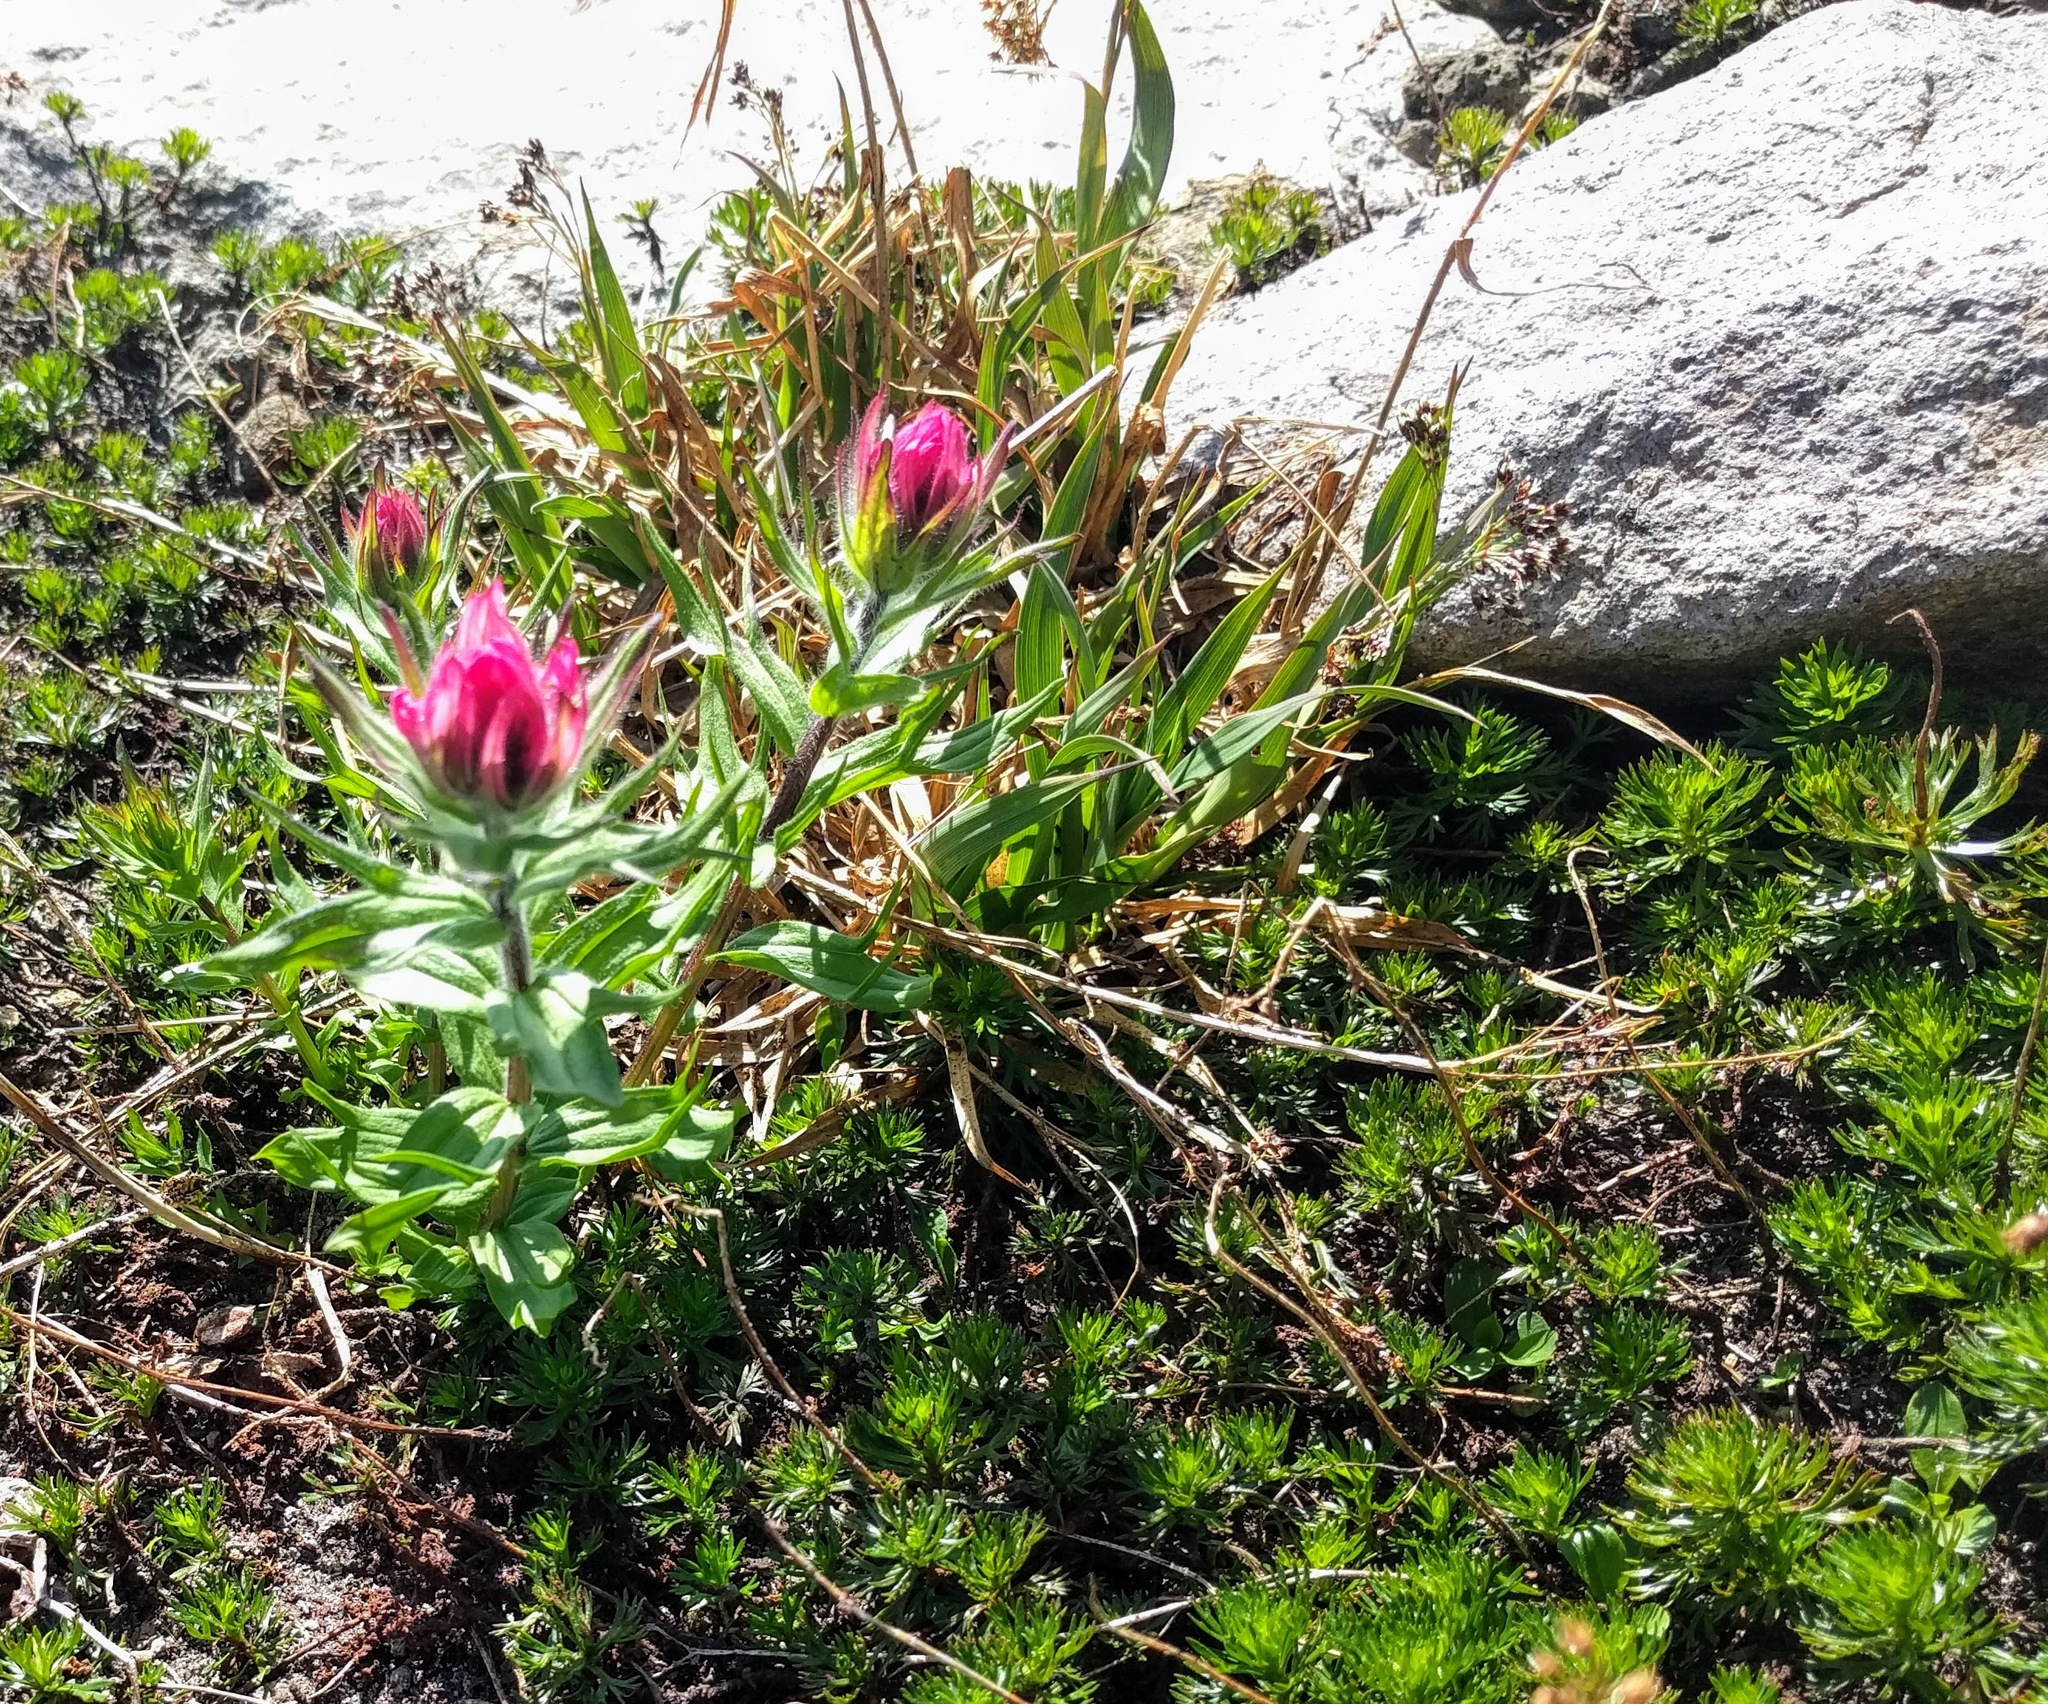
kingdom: Plantae
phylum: Tracheophyta
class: Magnoliopsida
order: Lamiales
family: Orobanchaceae
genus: Castilleja
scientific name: Castilleja parviflora
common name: Mountain paintbrush
